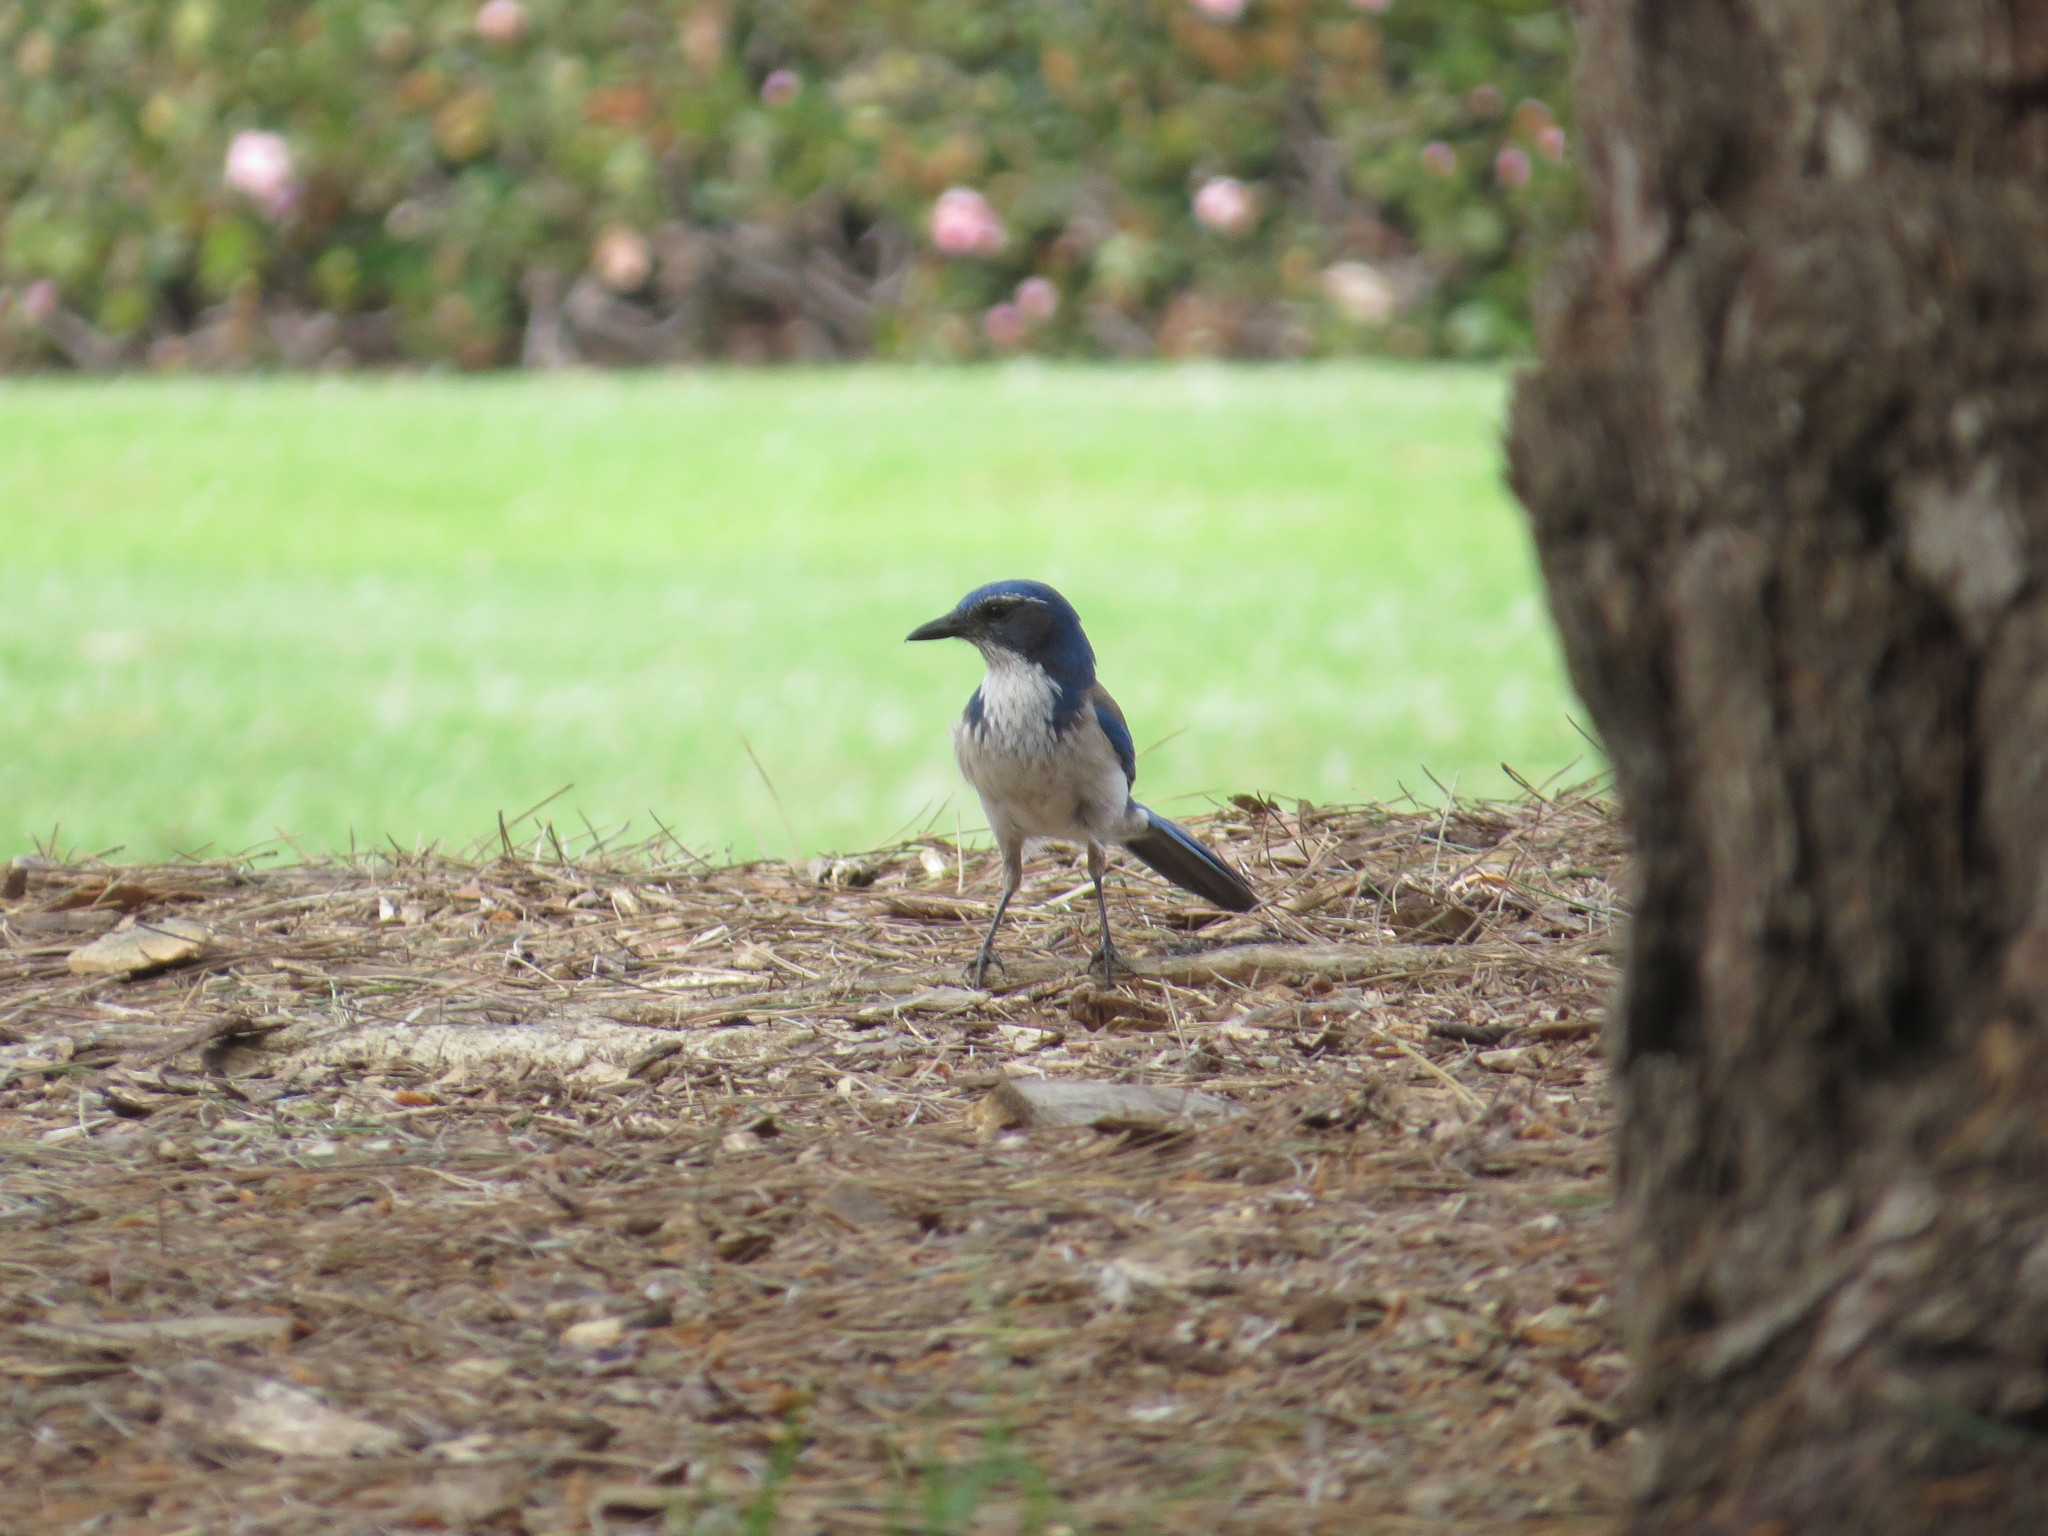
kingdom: Animalia
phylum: Chordata
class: Aves
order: Passeriformes
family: Corvidae
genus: Aphelocoma
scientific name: Aphelocoma californica
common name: California scrub-jay
